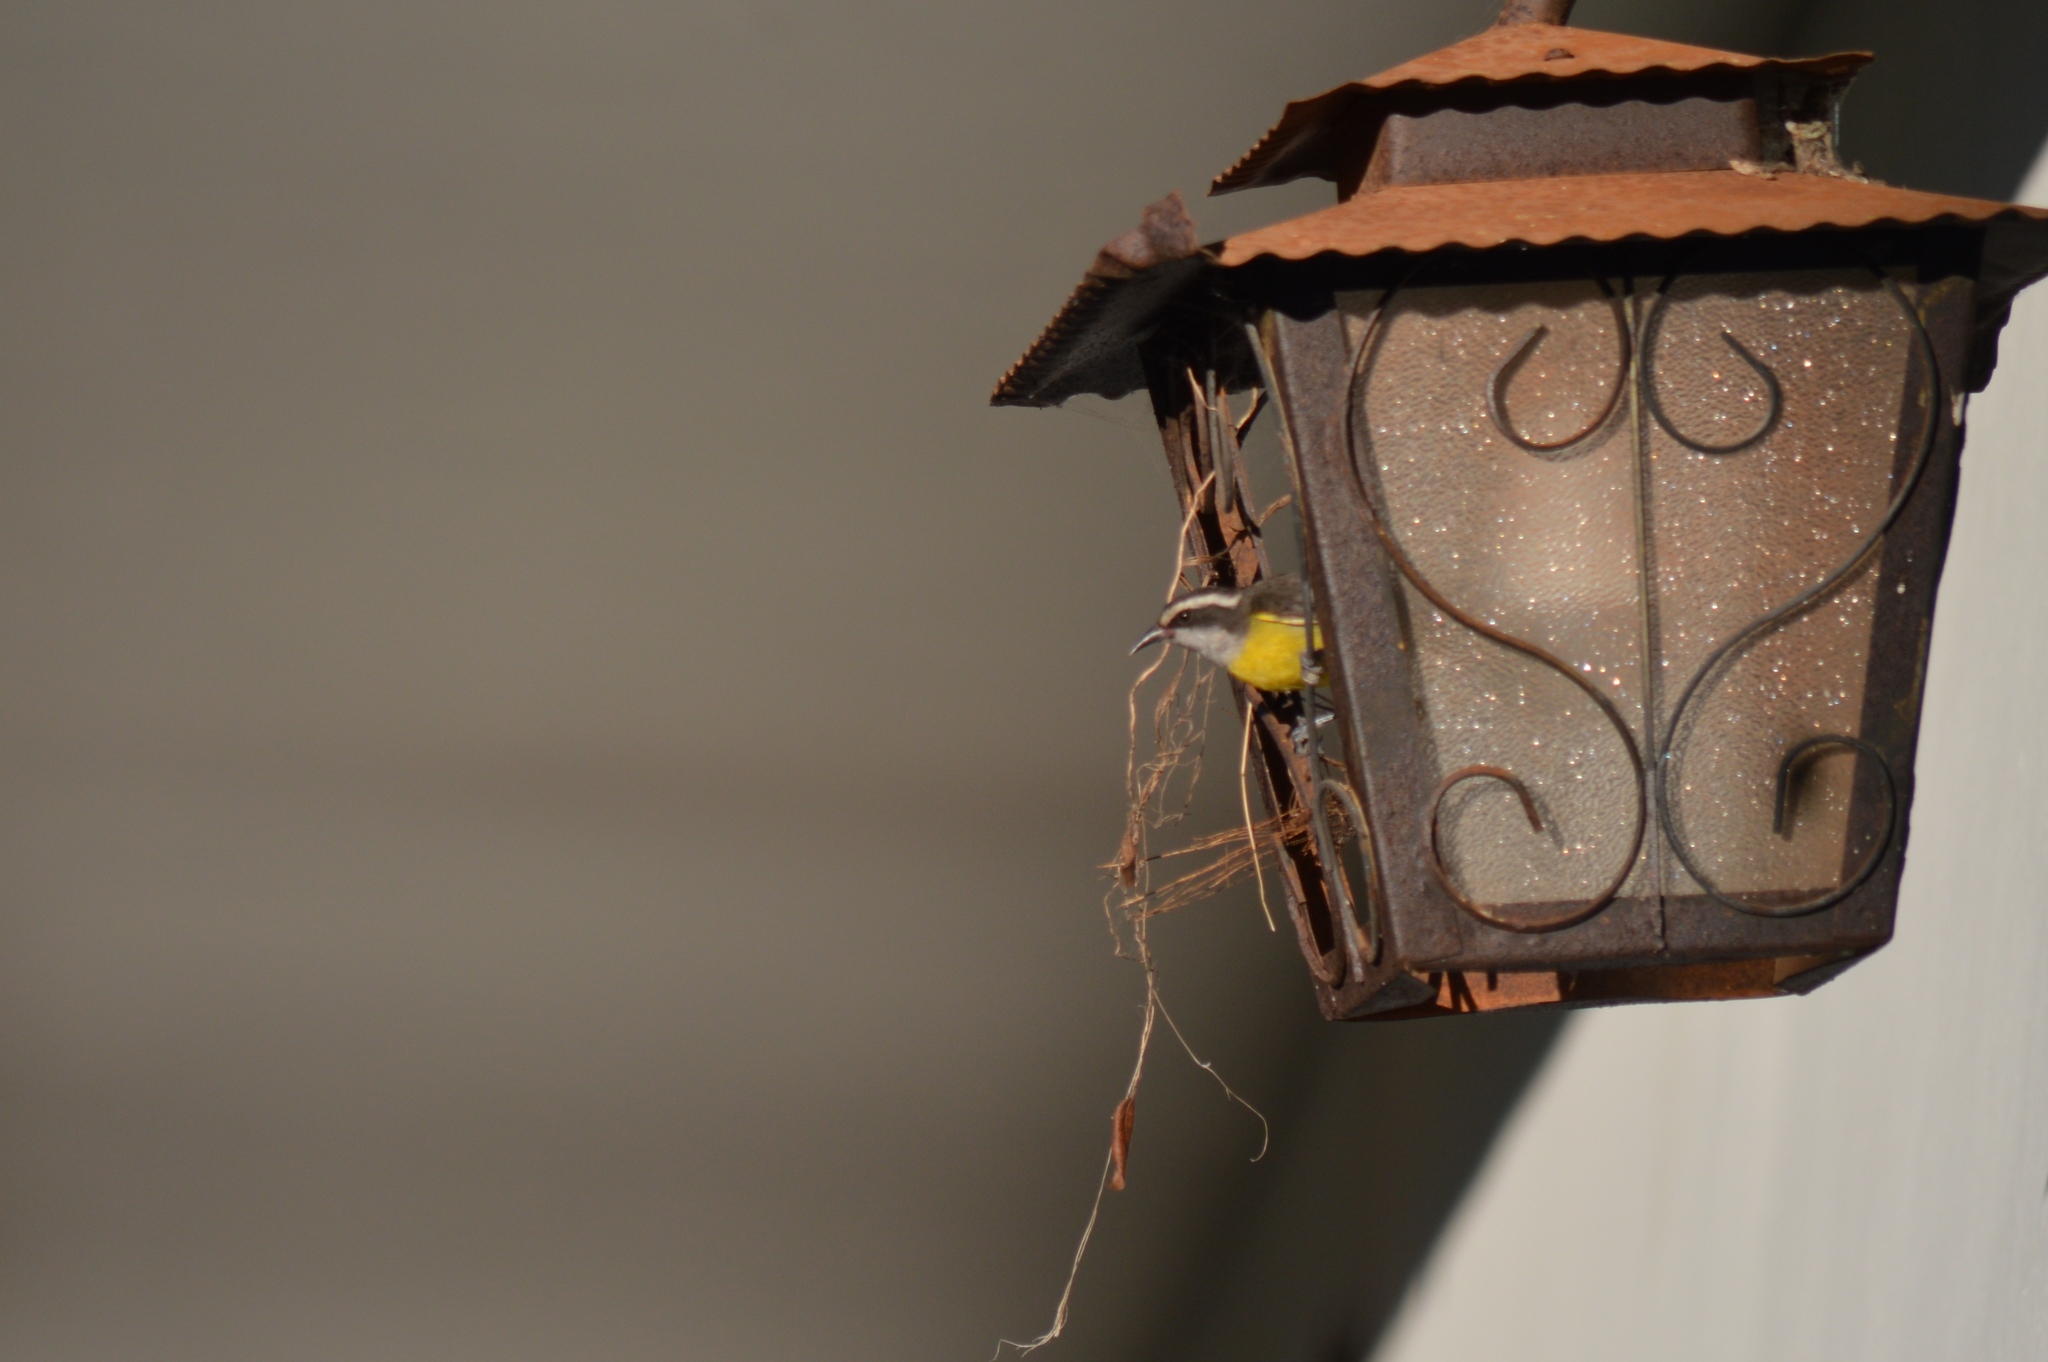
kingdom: Animalia
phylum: Chordata
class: Aves
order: Passeriformes
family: Thraupidae
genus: Coereba
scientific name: Coereba flaveola
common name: Bananaquit
